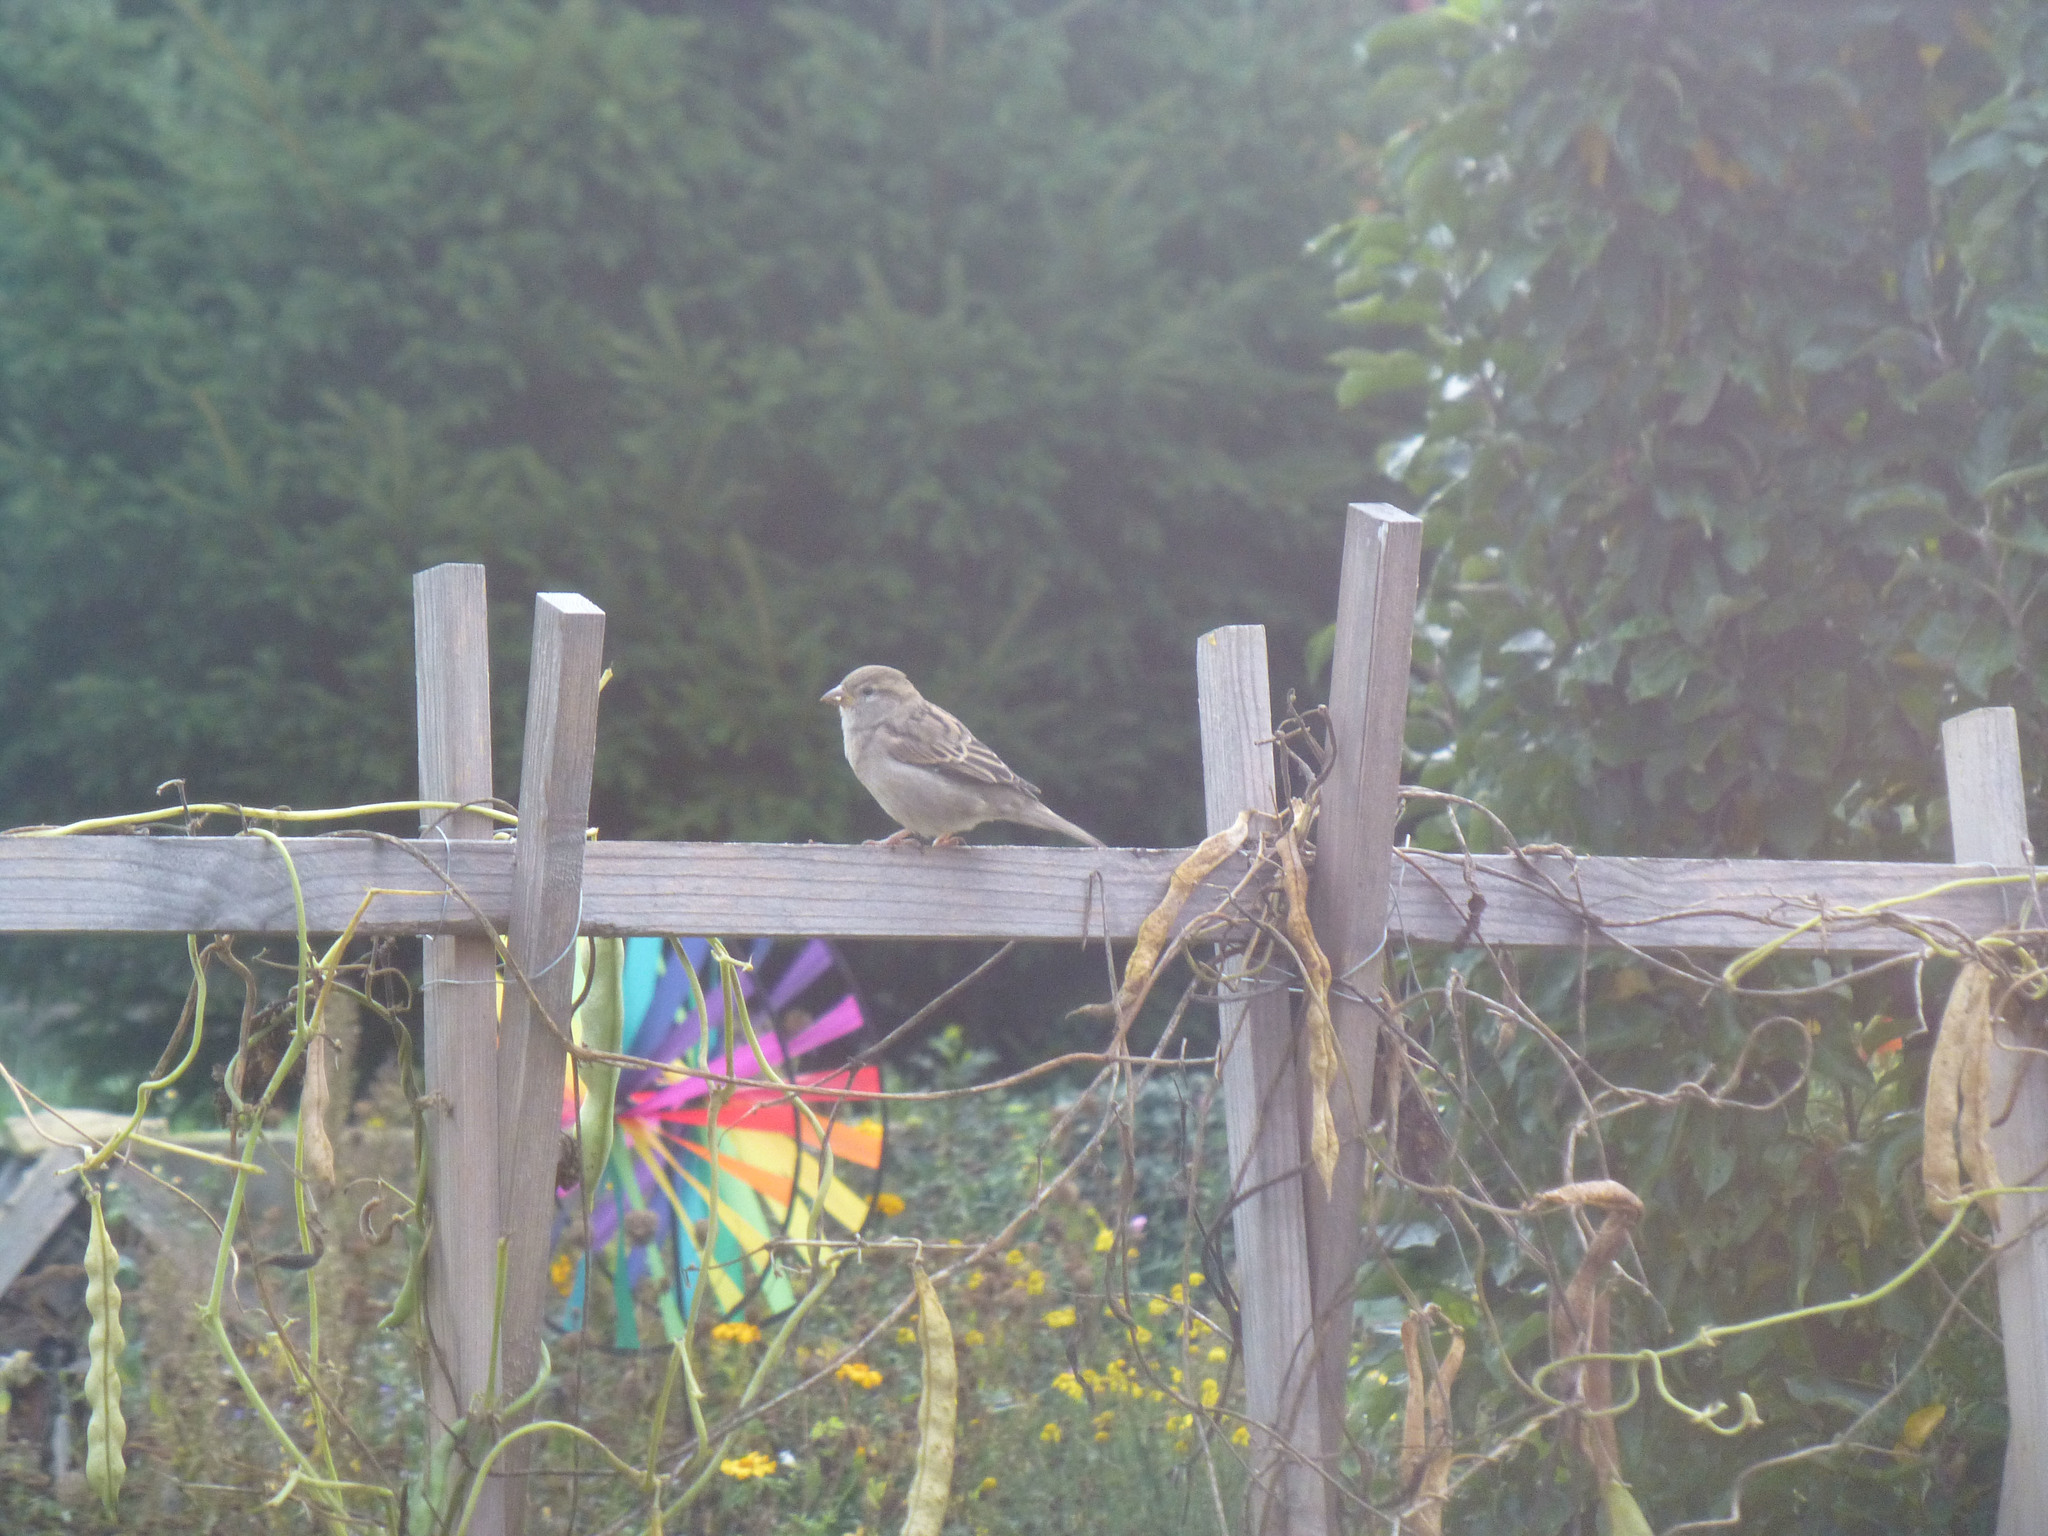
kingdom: Animalia
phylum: Chordata
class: Aves
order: Passeriformes
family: Passeridae
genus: Passer
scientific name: Passer domesticus
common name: House sparrow
